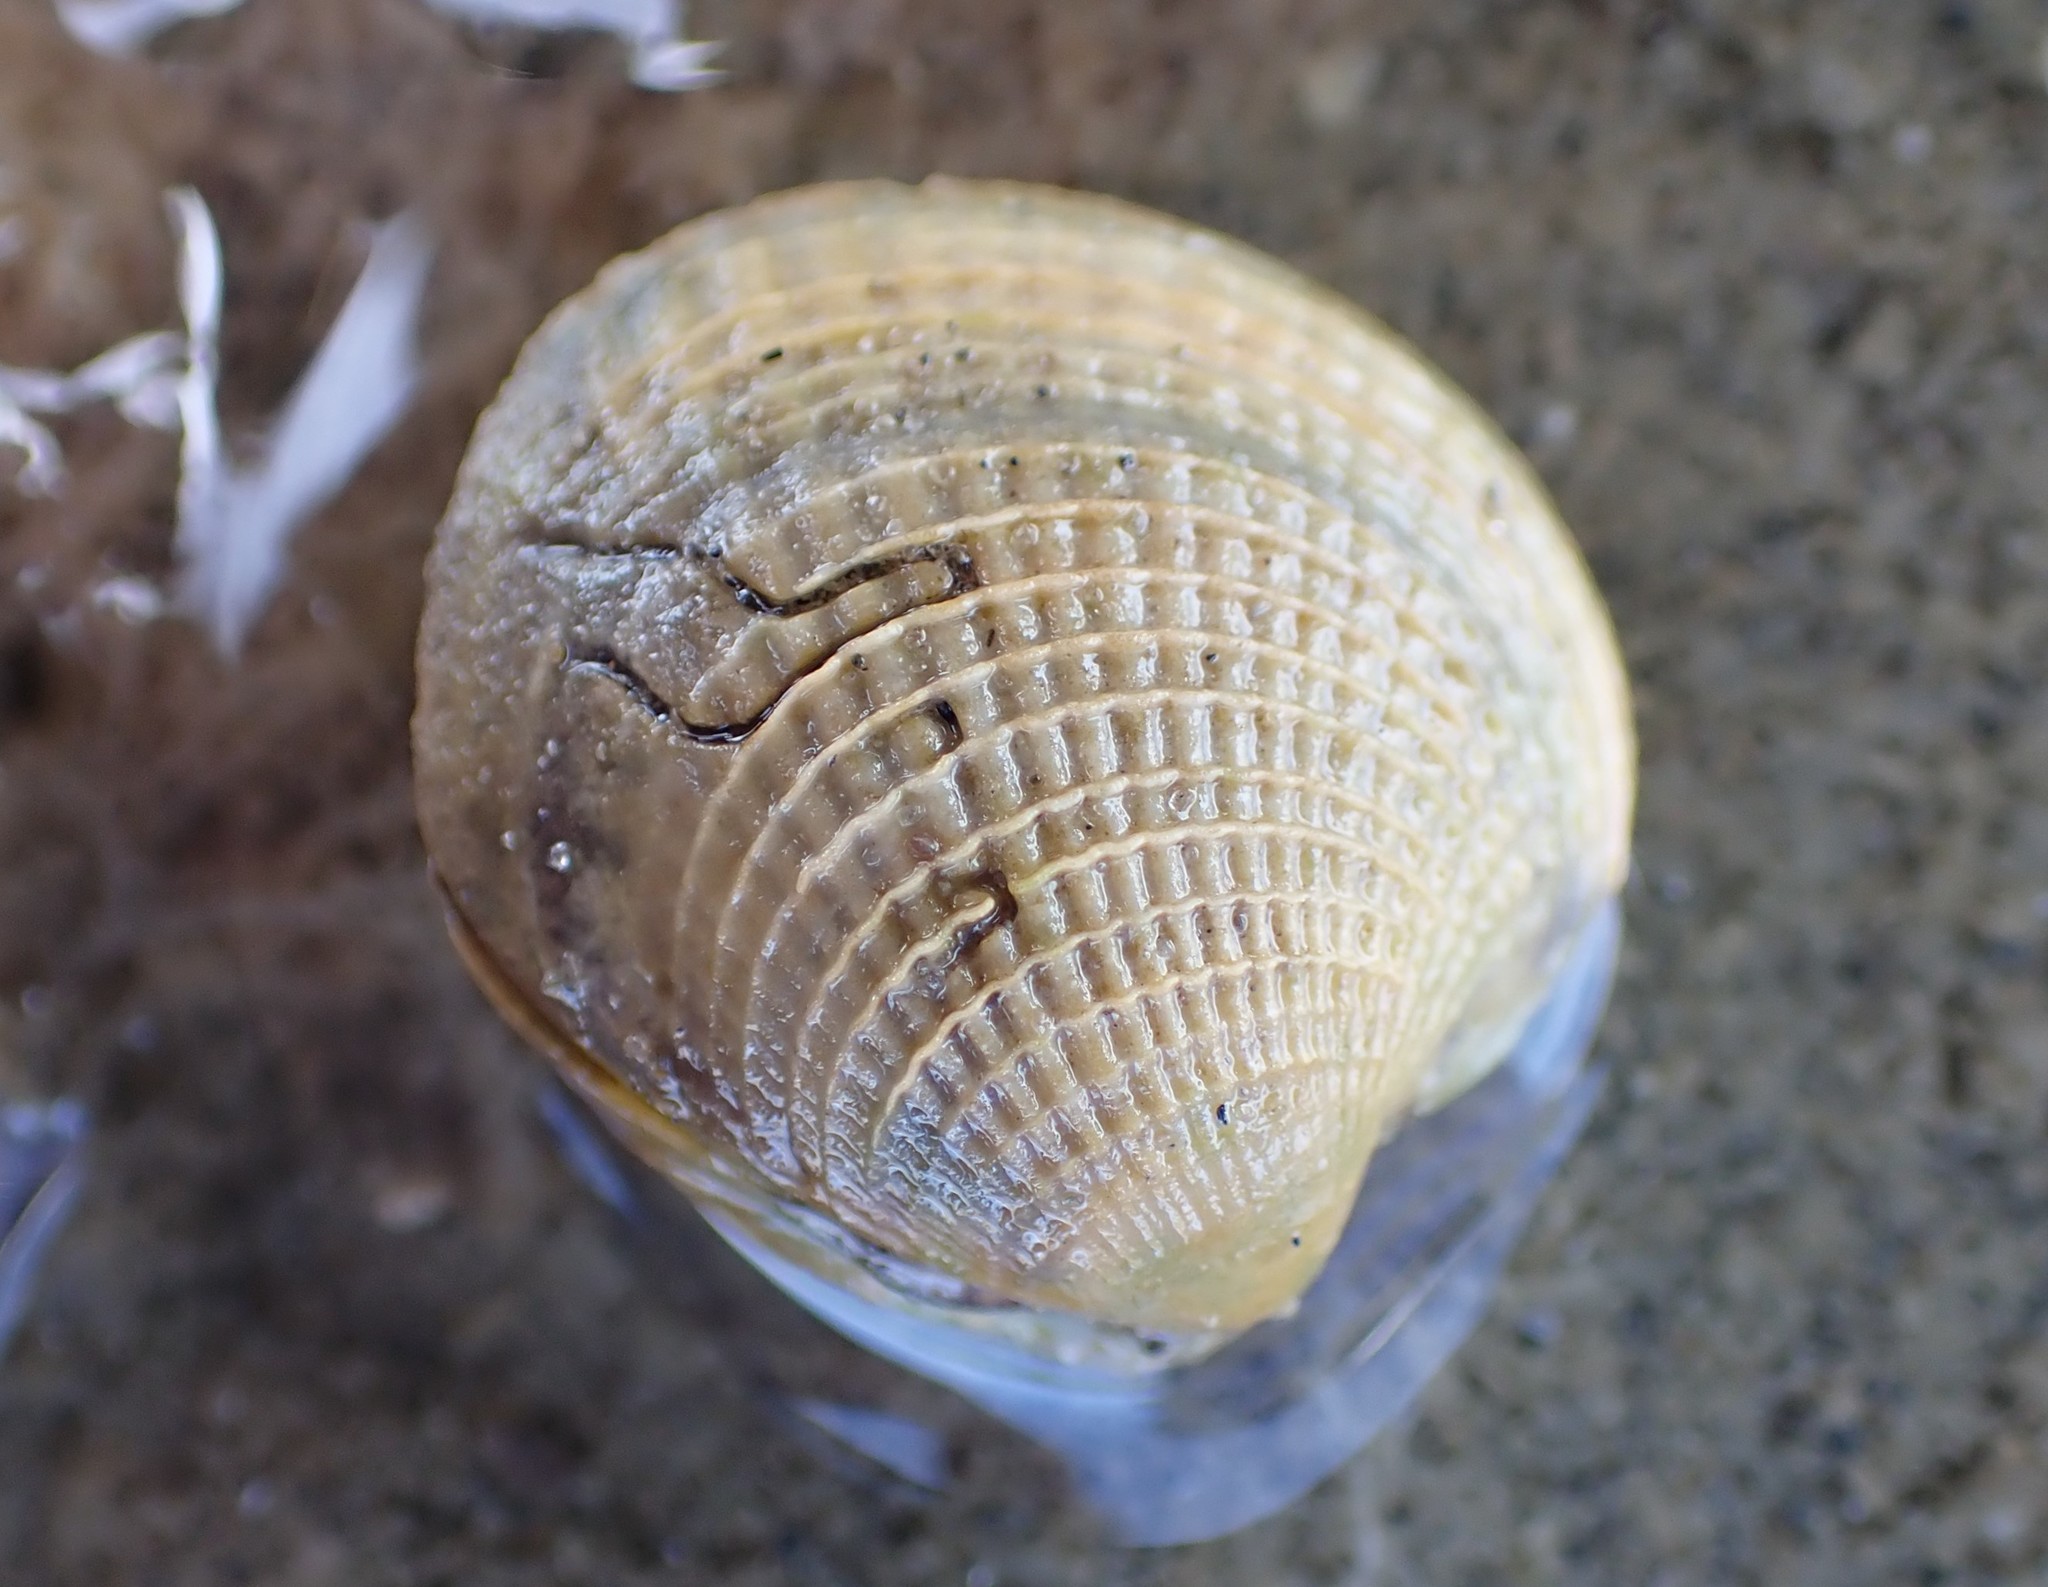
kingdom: Animalia
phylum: Mollusca
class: Bivalvia
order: Venerida
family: Veneridae
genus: Austrovenus
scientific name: Austrovenus stutchburyi
